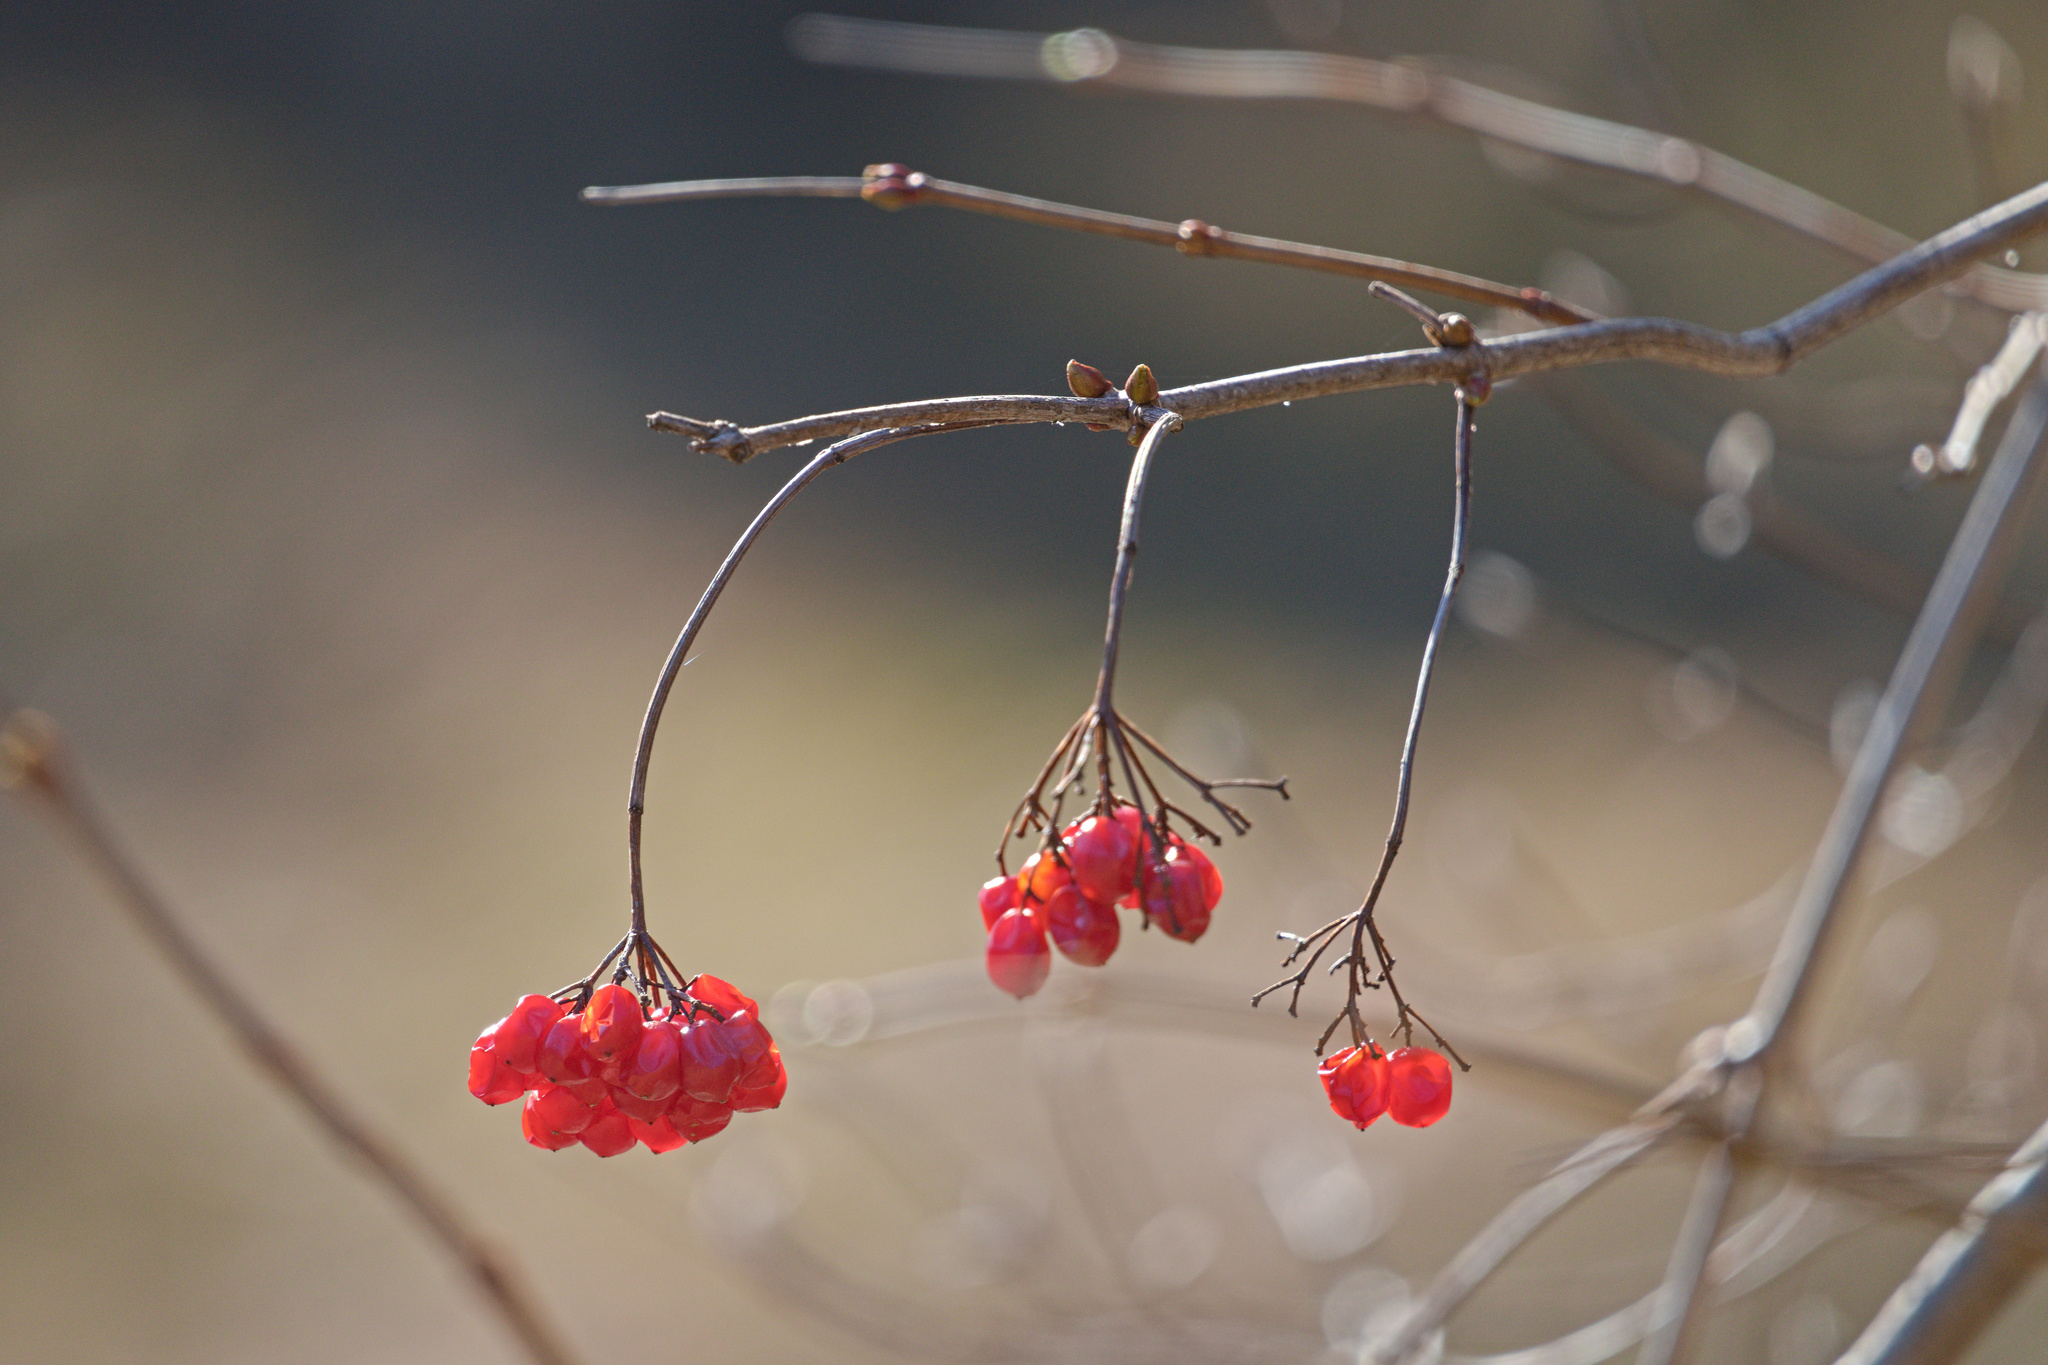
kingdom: Plantae
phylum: Tracheophyta
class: Magnoliopsida
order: Dipsacales
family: Viburnaceae
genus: Viburnum
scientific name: Viburnum opulus
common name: Guelder-rose
